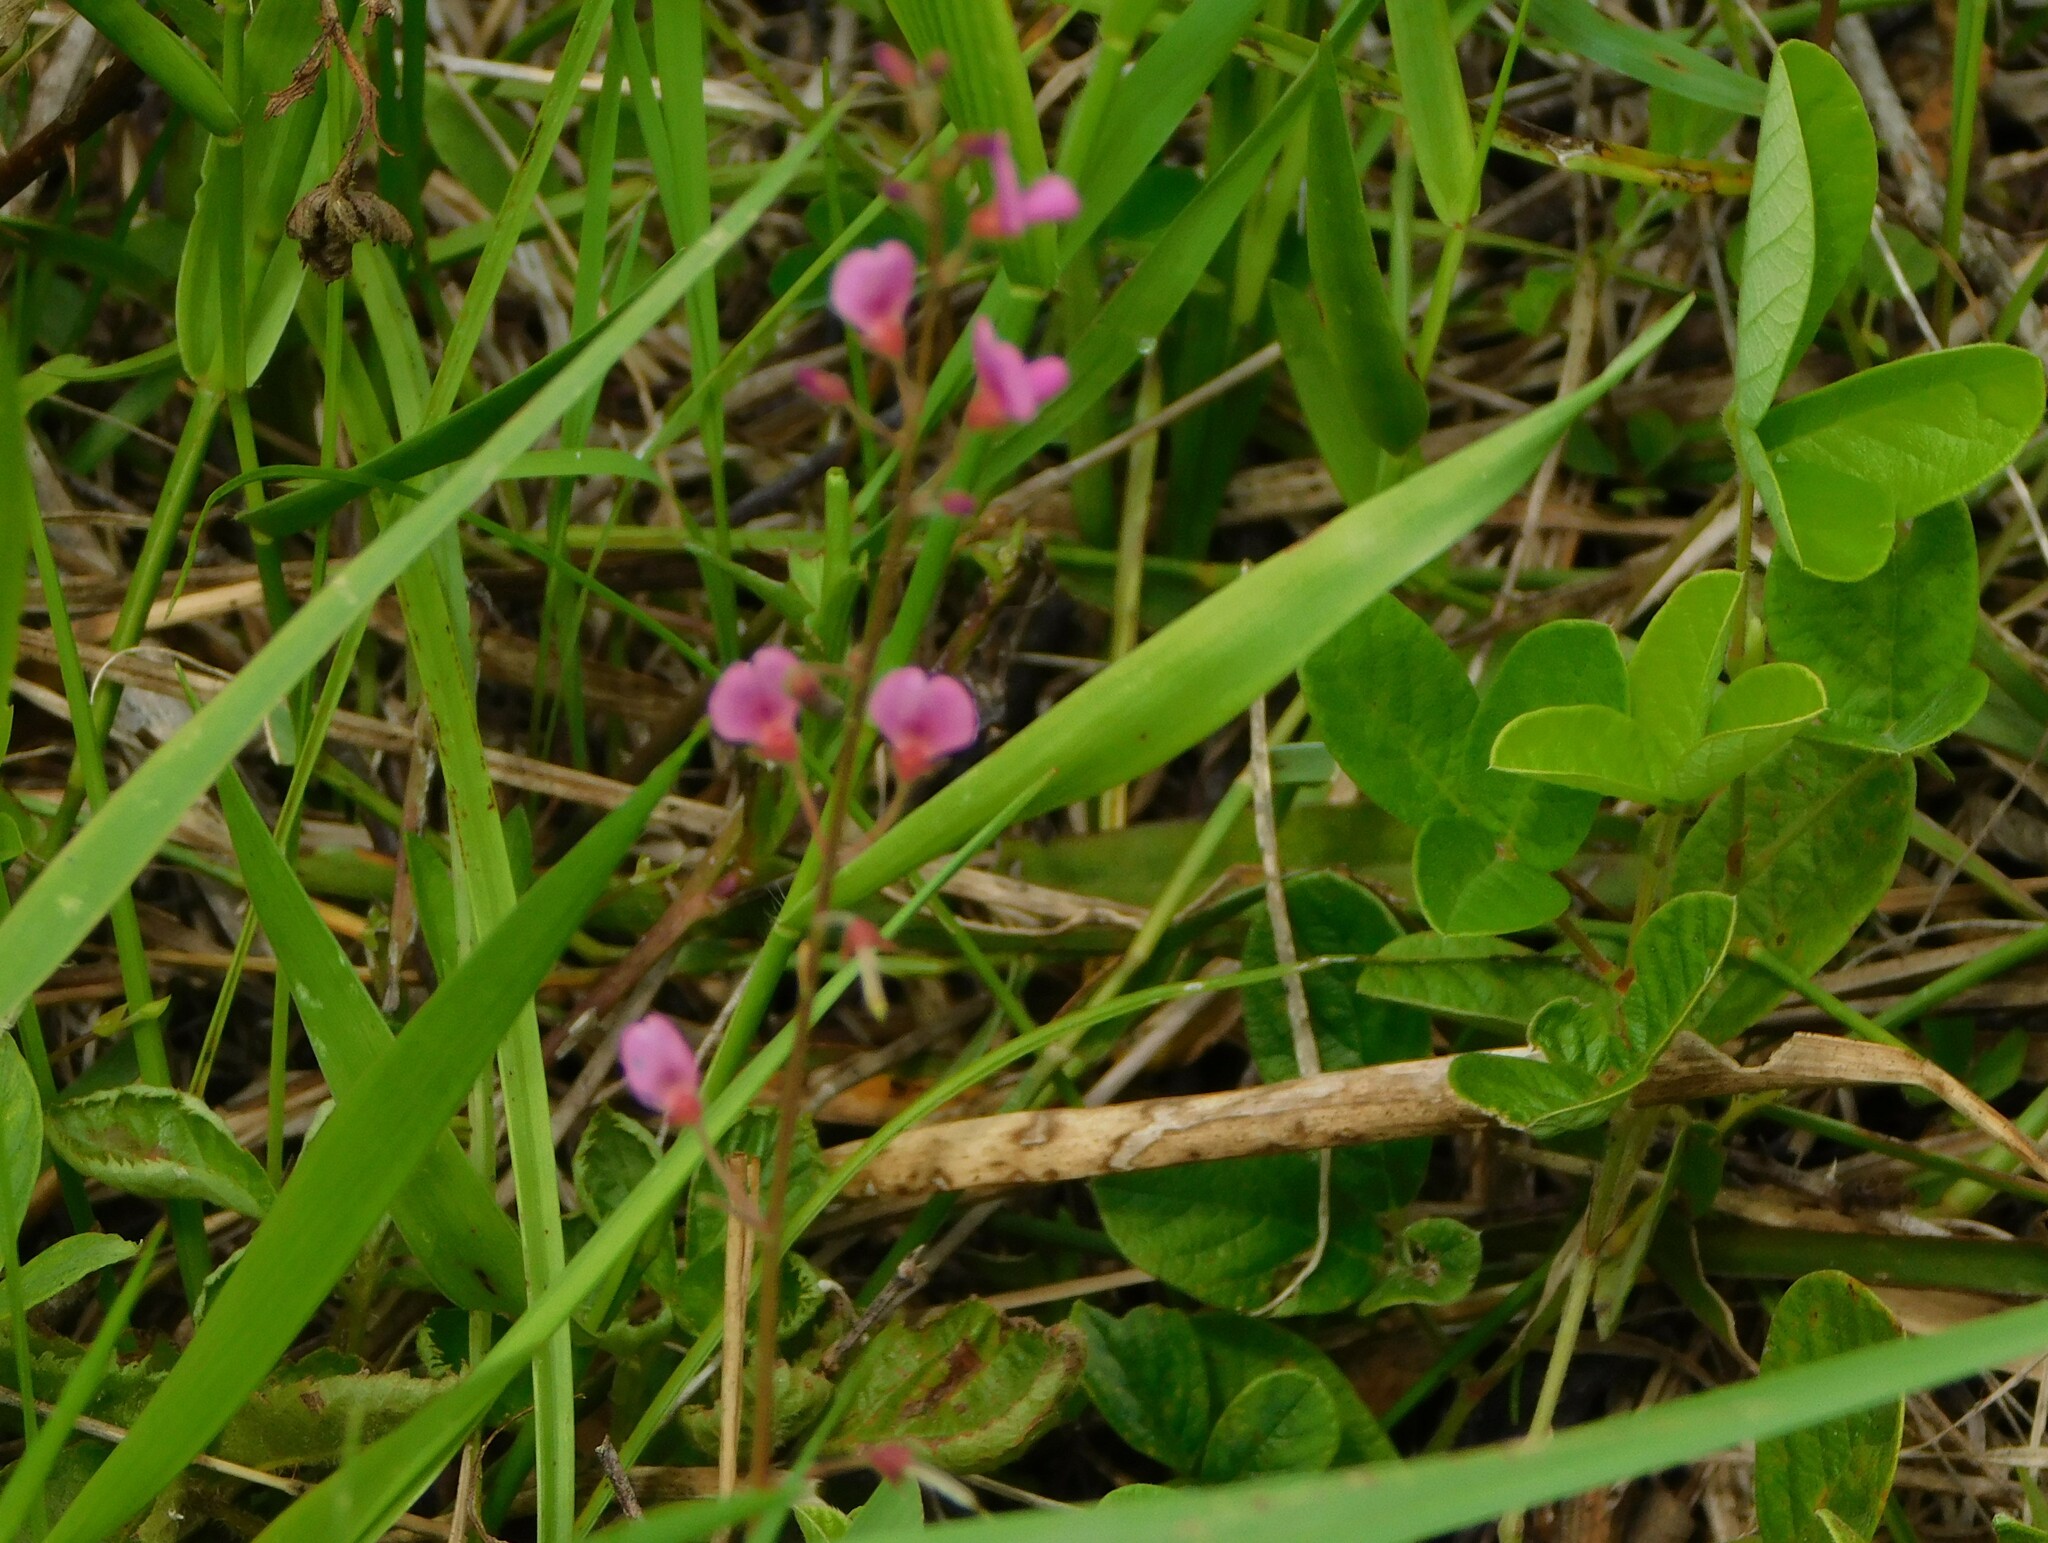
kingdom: Plantae
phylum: Tracheophyta
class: Magnoliopsida
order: Fabales
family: Fabaceae
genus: Desmodium
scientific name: Desmodium incanum
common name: Tickclover
